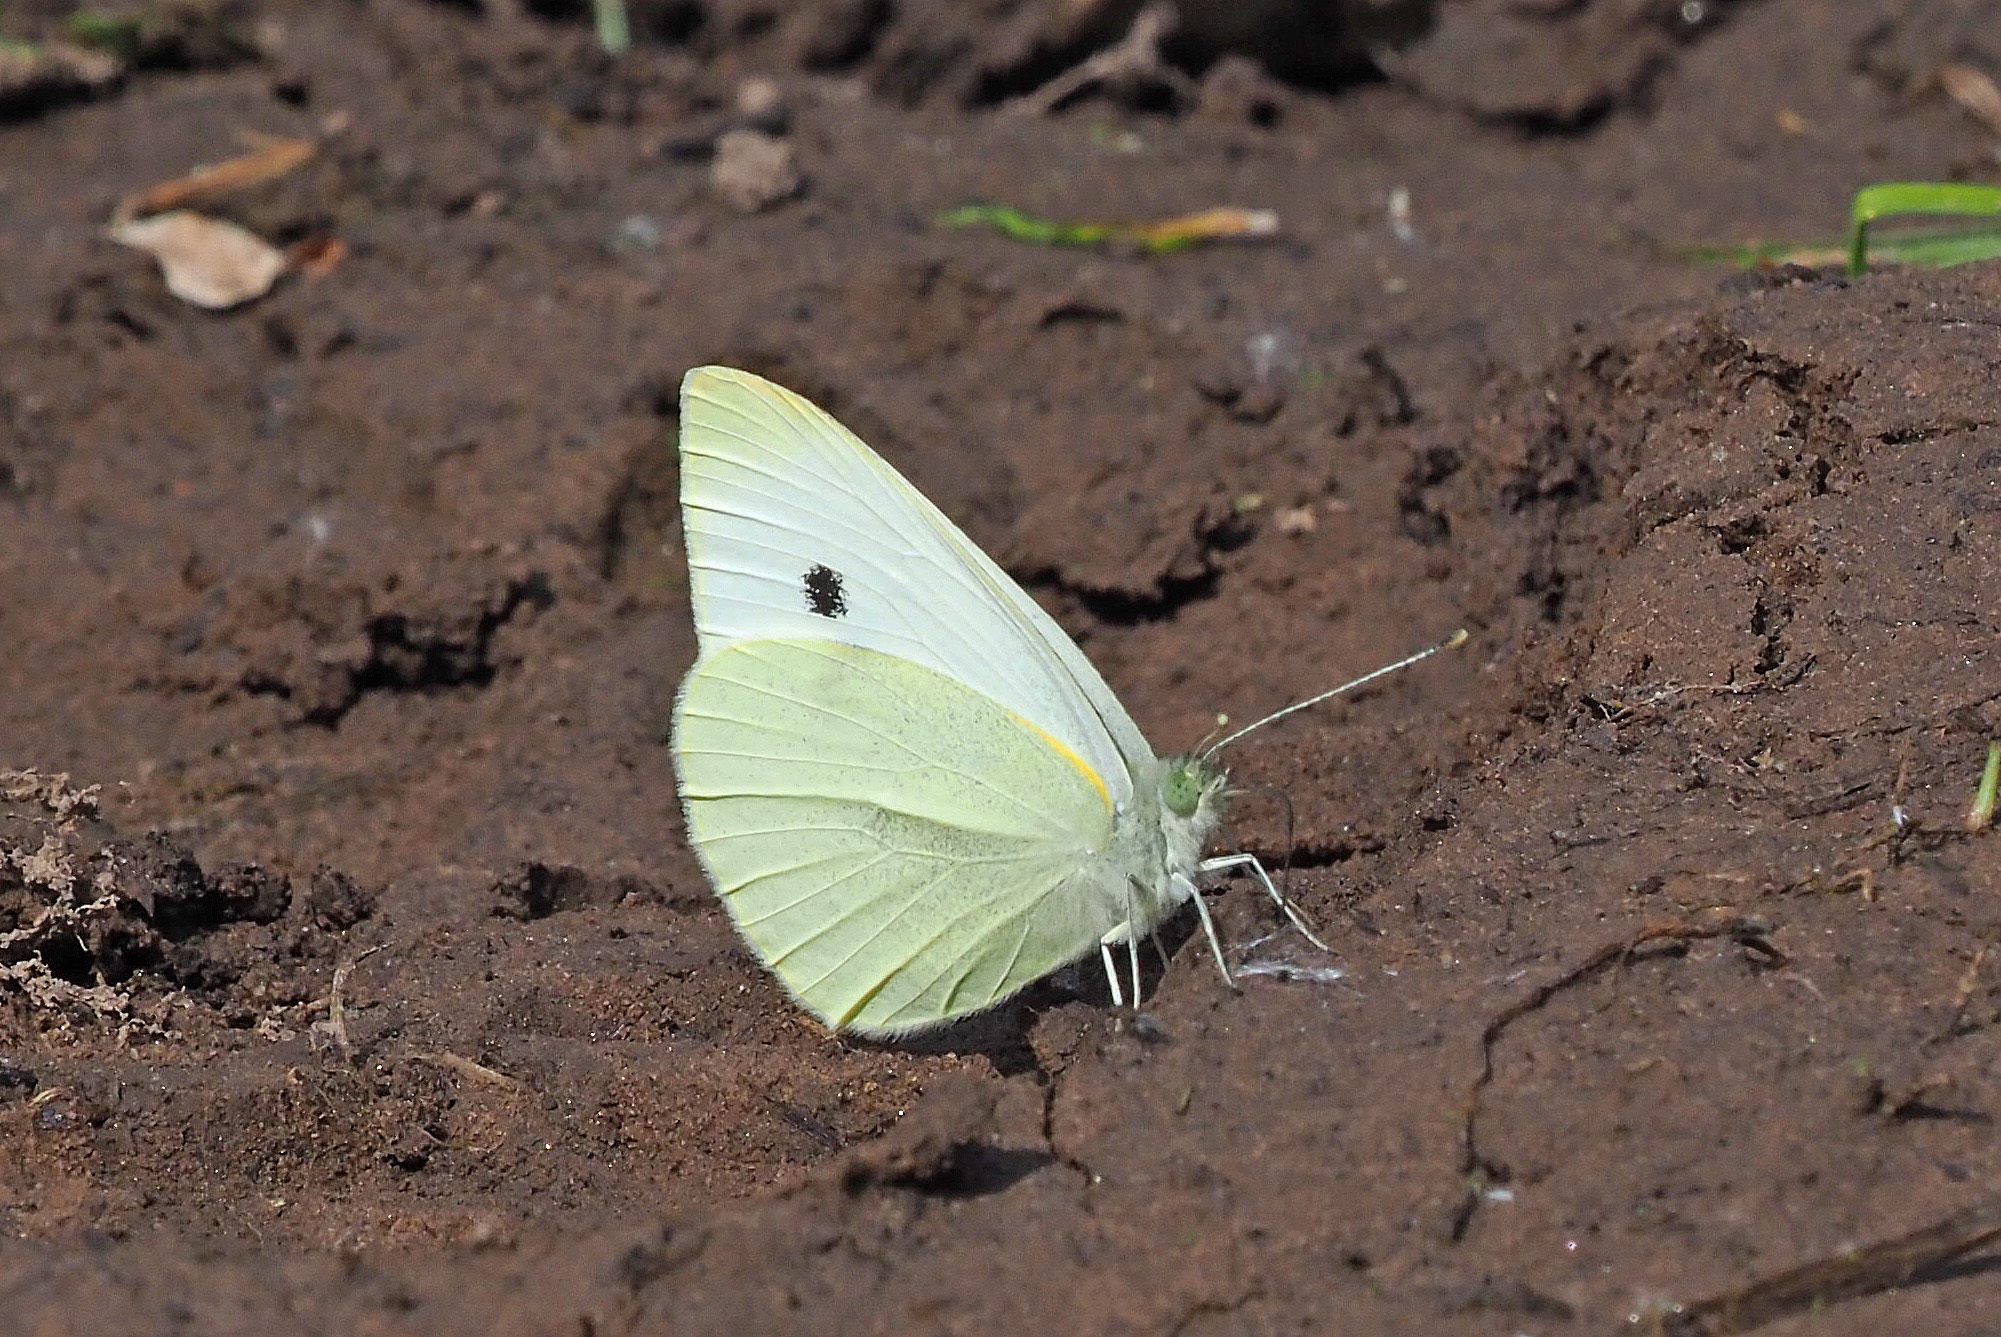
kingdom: Animalia
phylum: Arthropoda
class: Insecta
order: Lepidoptera
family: Pieridae
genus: Pieris
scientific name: Pieris rapae
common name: Small white
